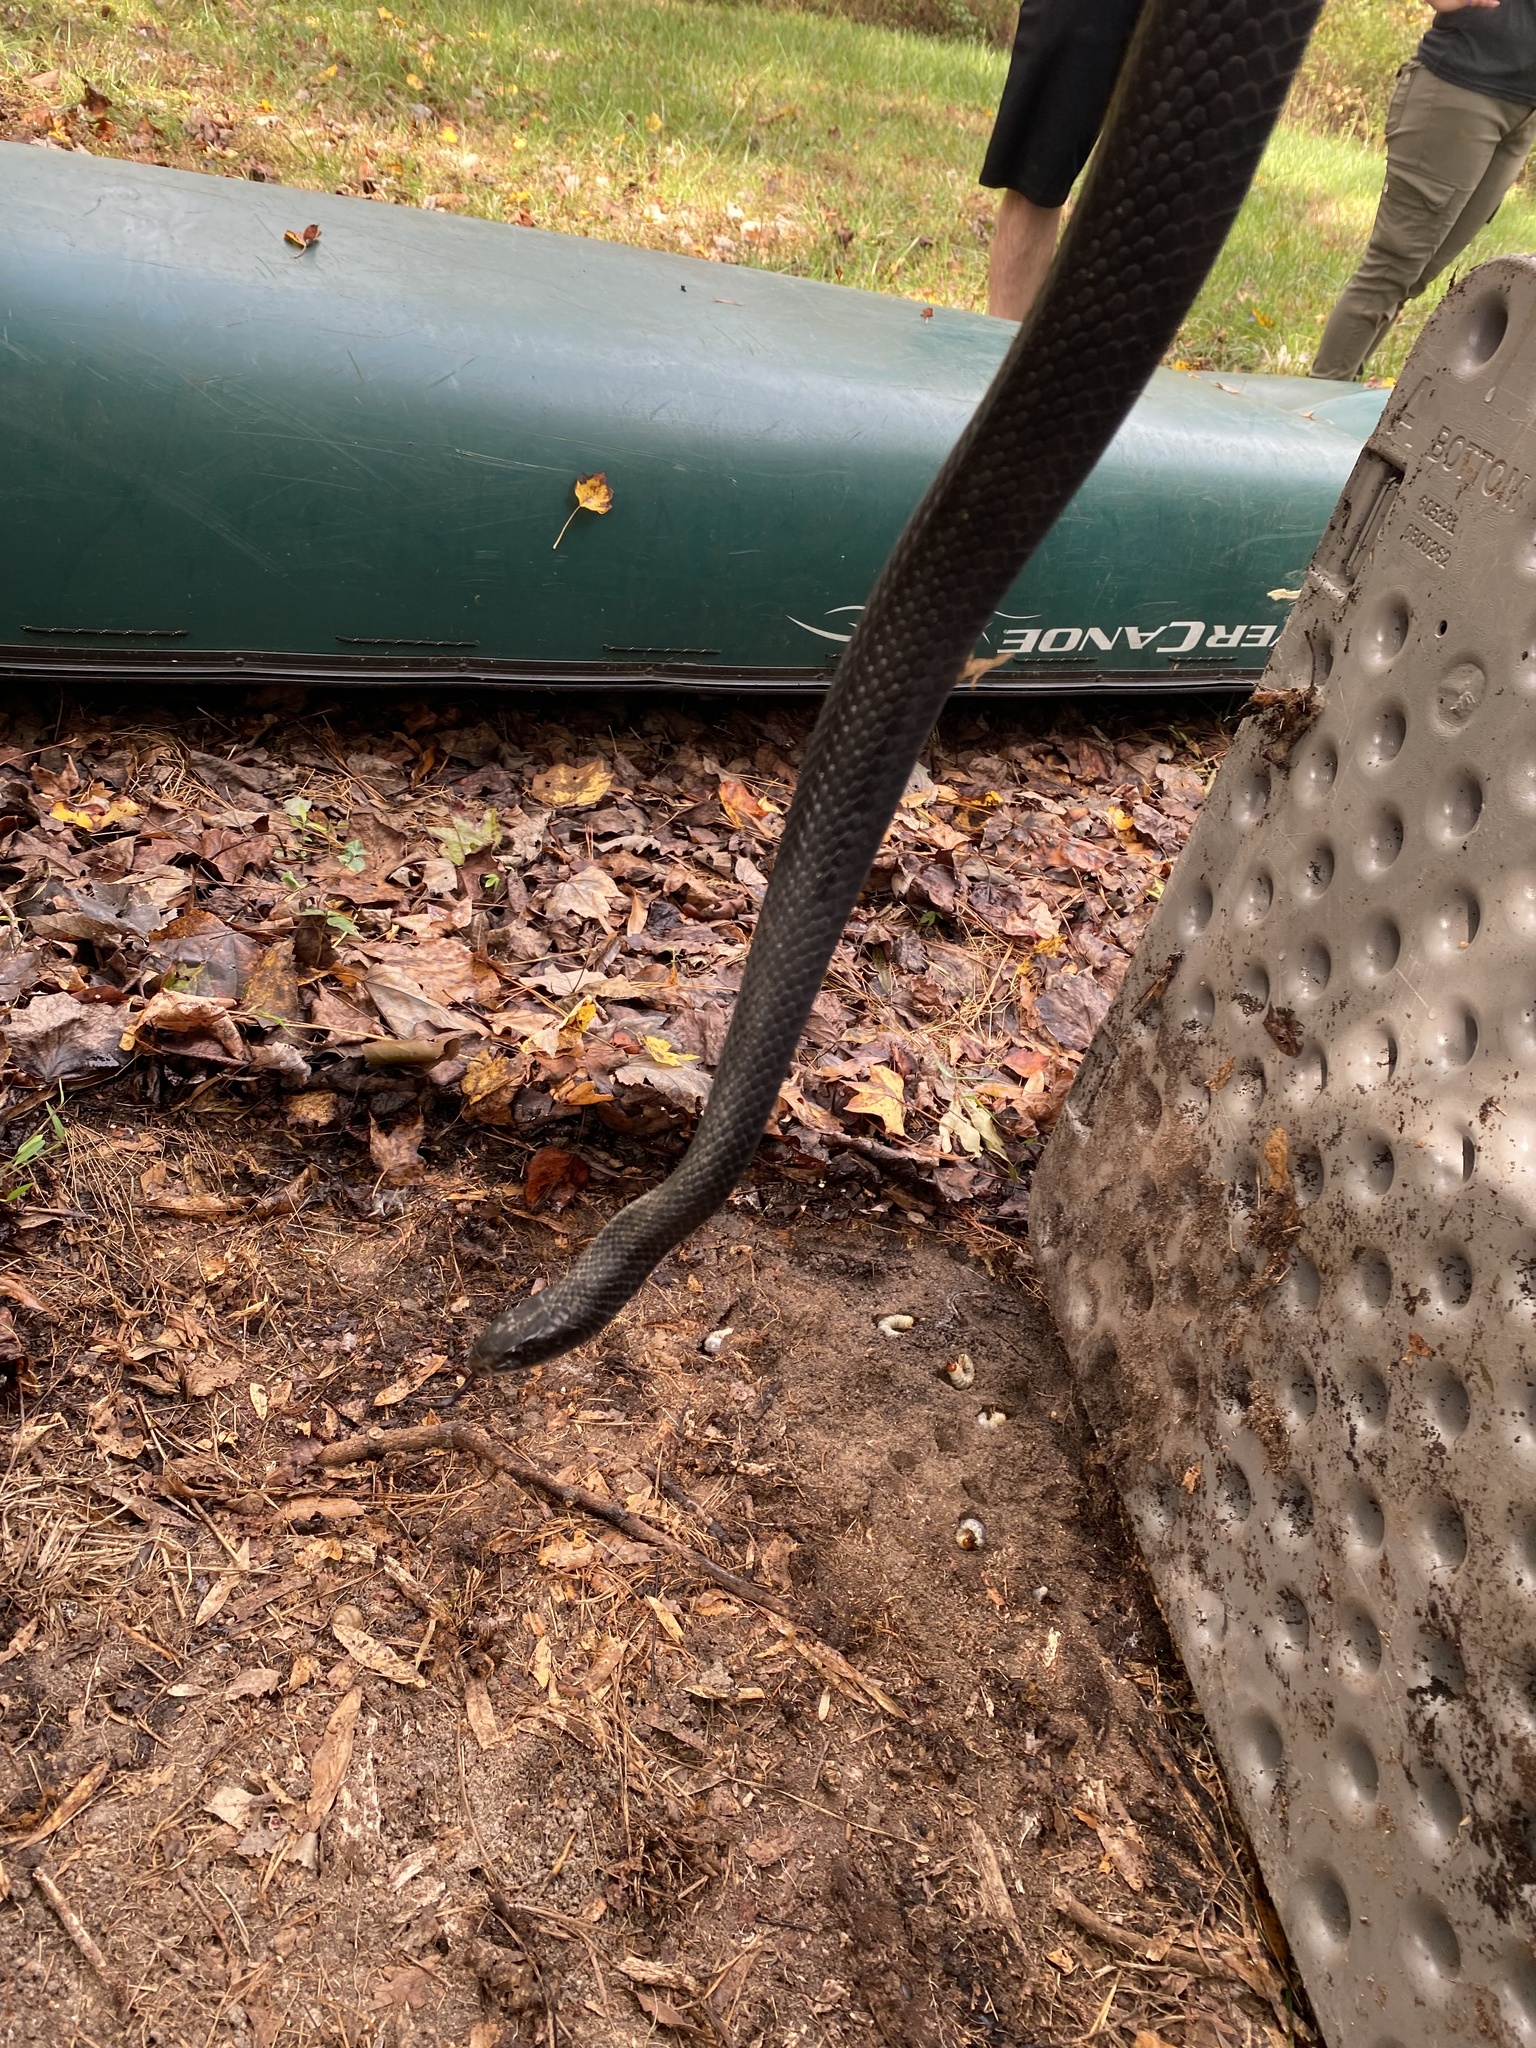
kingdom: Animalia
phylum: Chordata
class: Squamata
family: Colubridae
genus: Coluber
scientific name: Coluber constrictor
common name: Eastern racer
